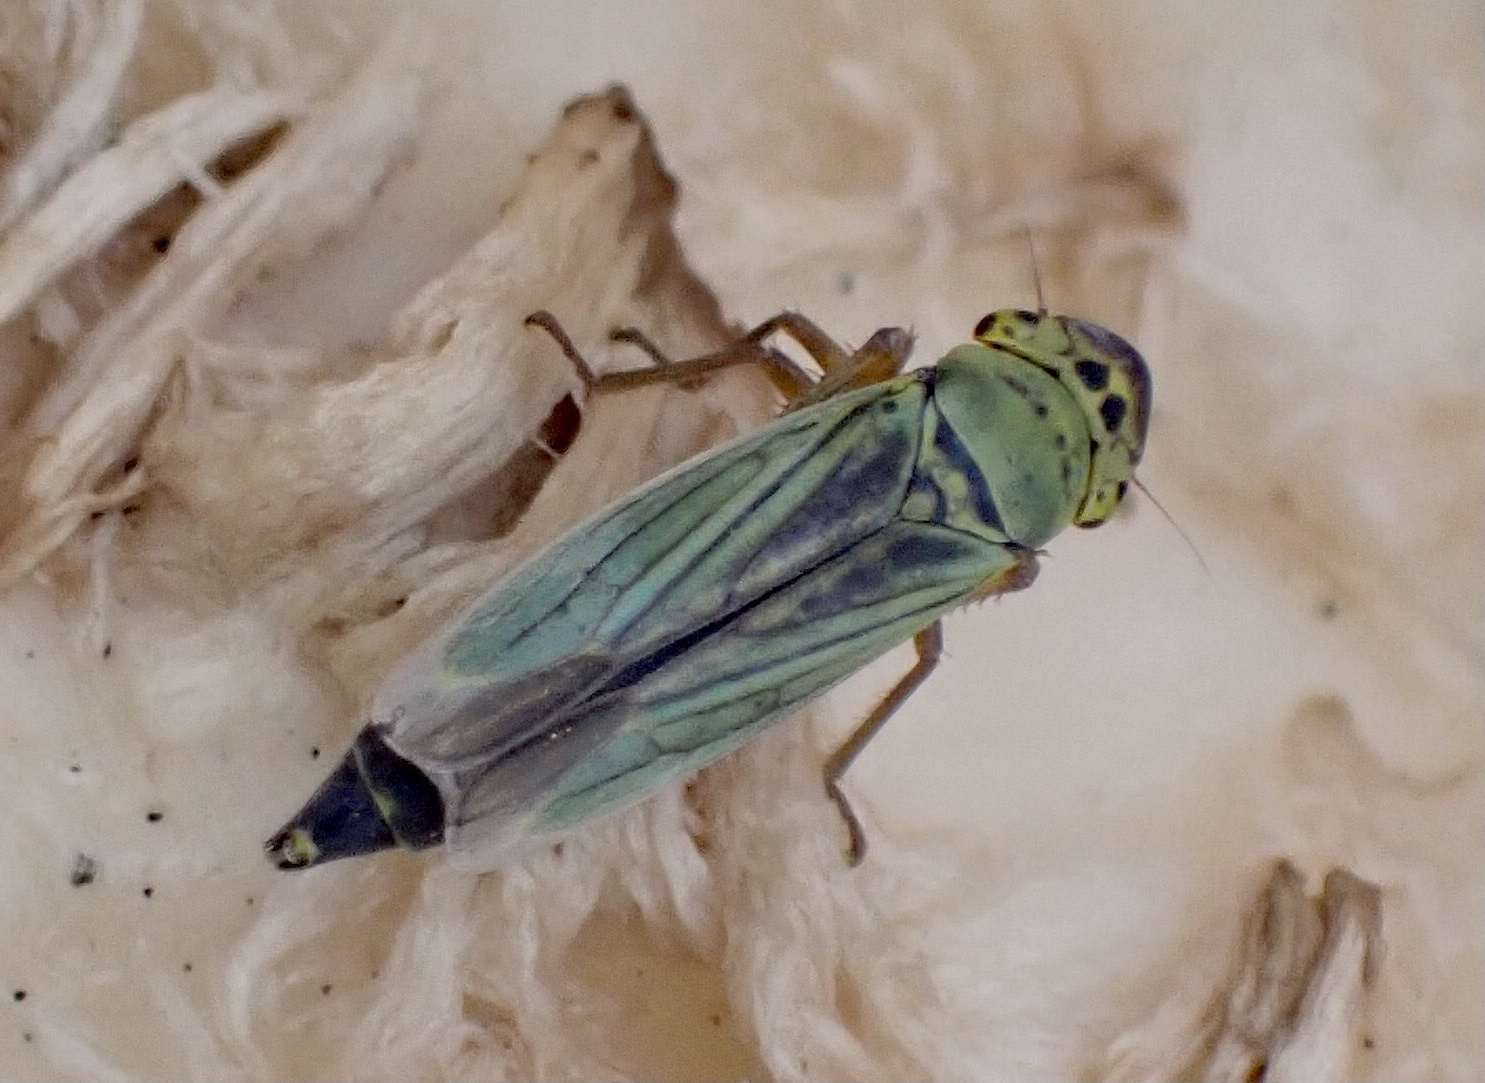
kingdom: Animalia
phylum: Arthropoda
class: Insecta
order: Hemiptera
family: Cicadellidae
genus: Cicadella
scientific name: Cicadella viridis
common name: Leafhopper
